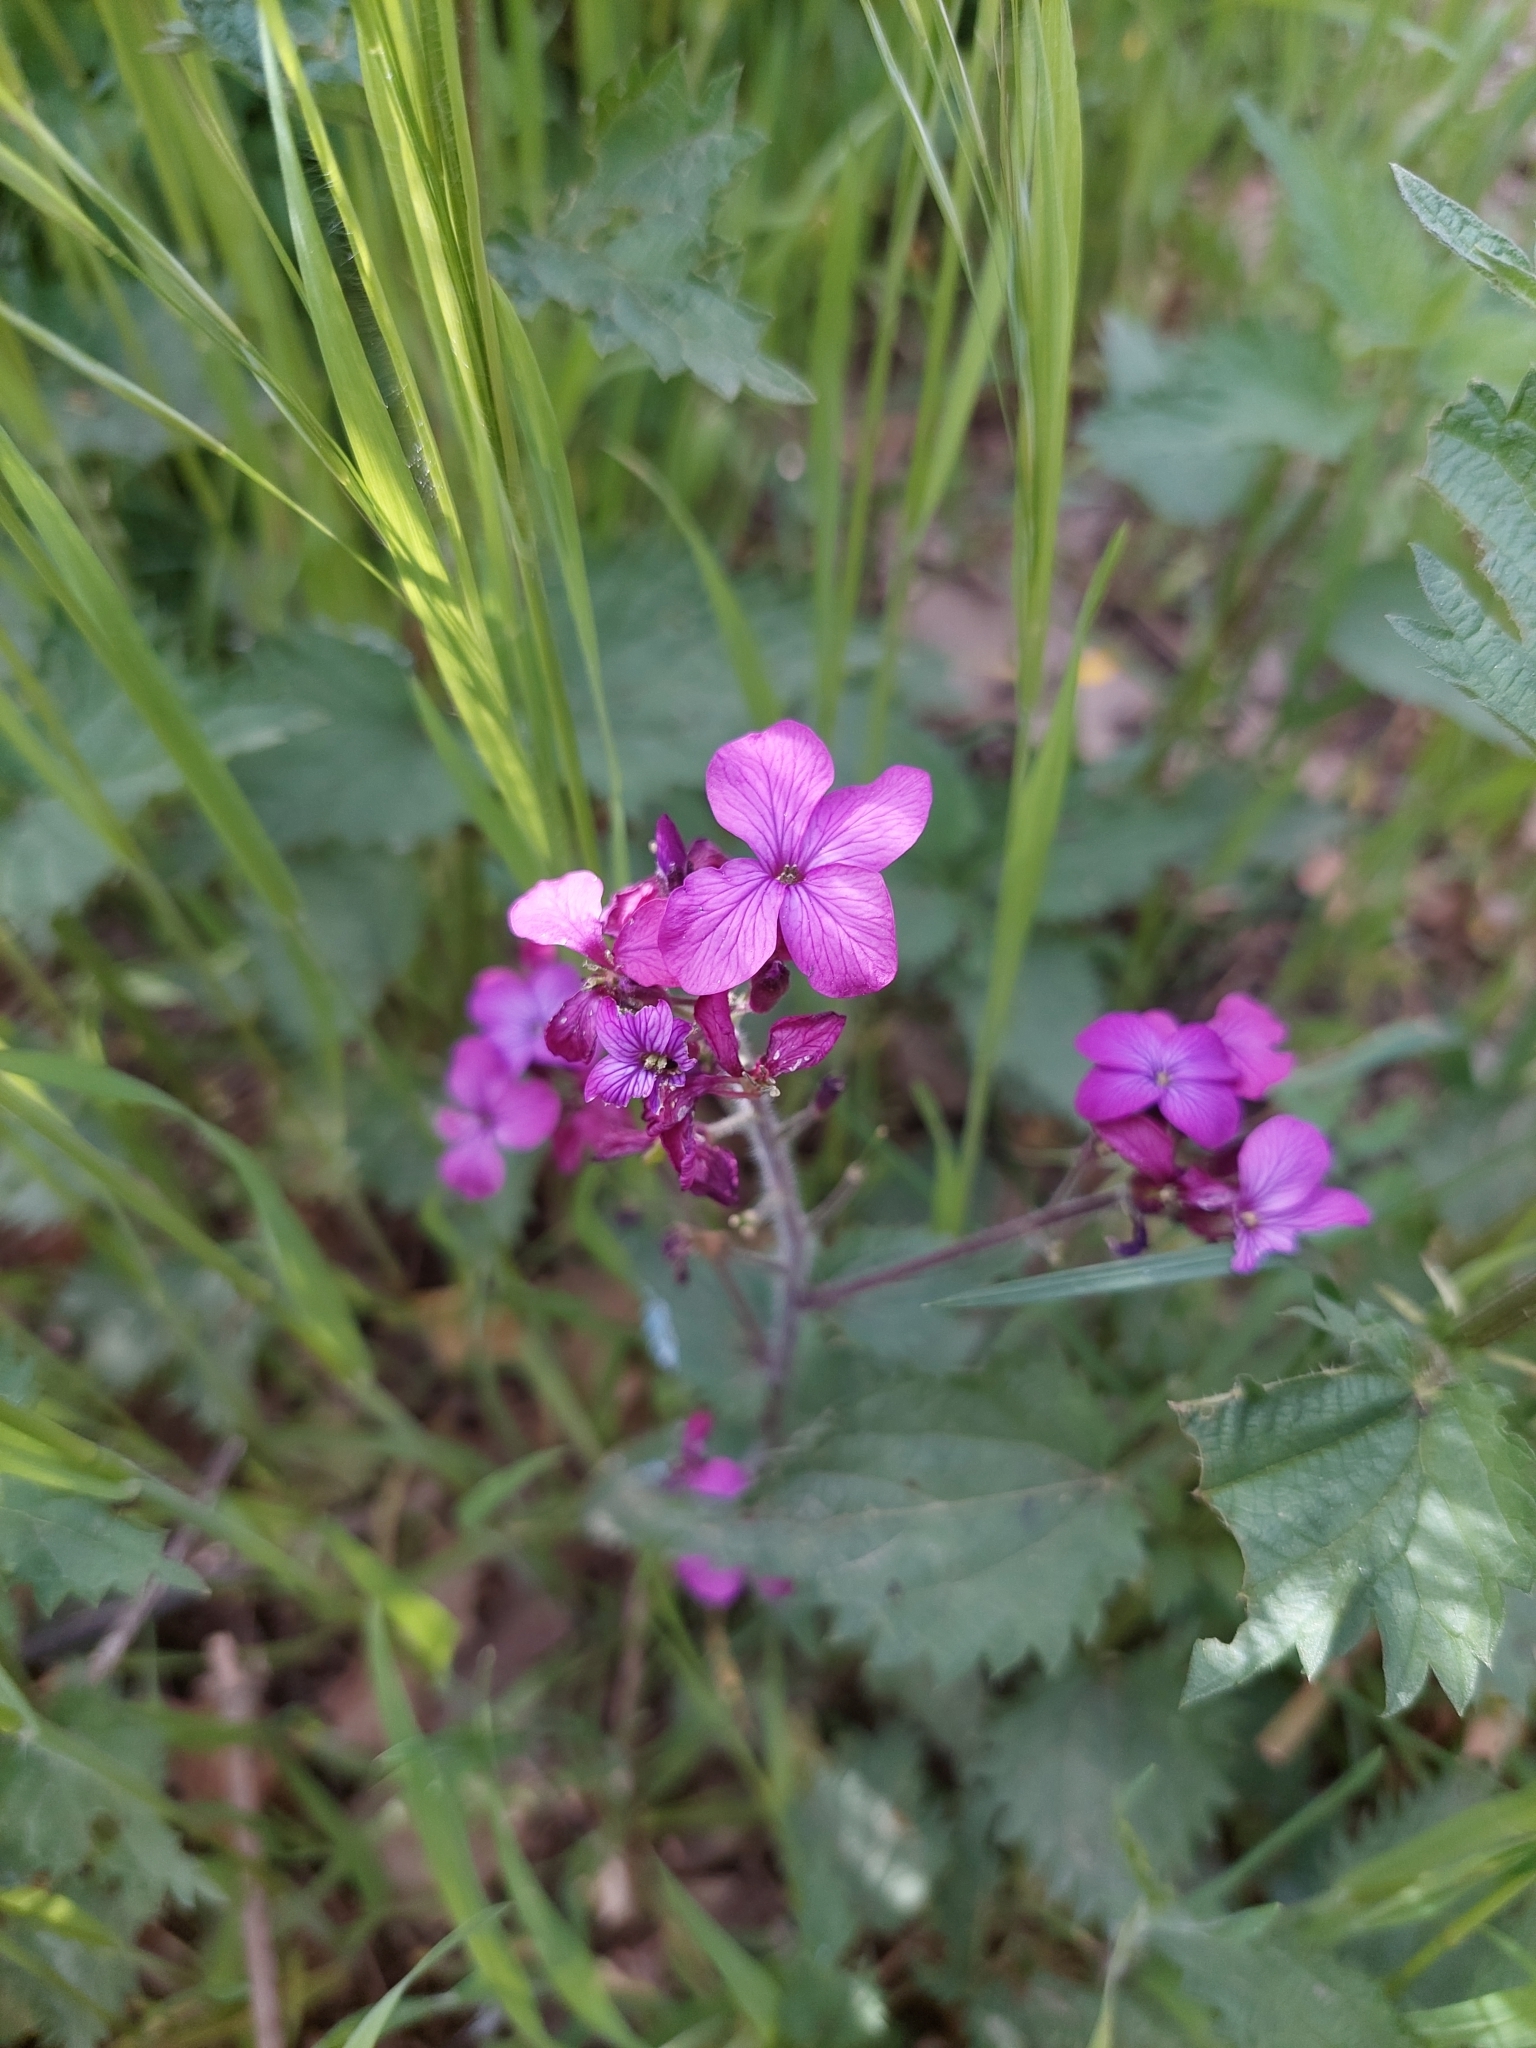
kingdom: Plantae
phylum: Tracheophyta
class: Magnoliopsida
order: Brassicales
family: Brassicaceae
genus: Lunaria
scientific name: Lunaria annua
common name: Honesty
